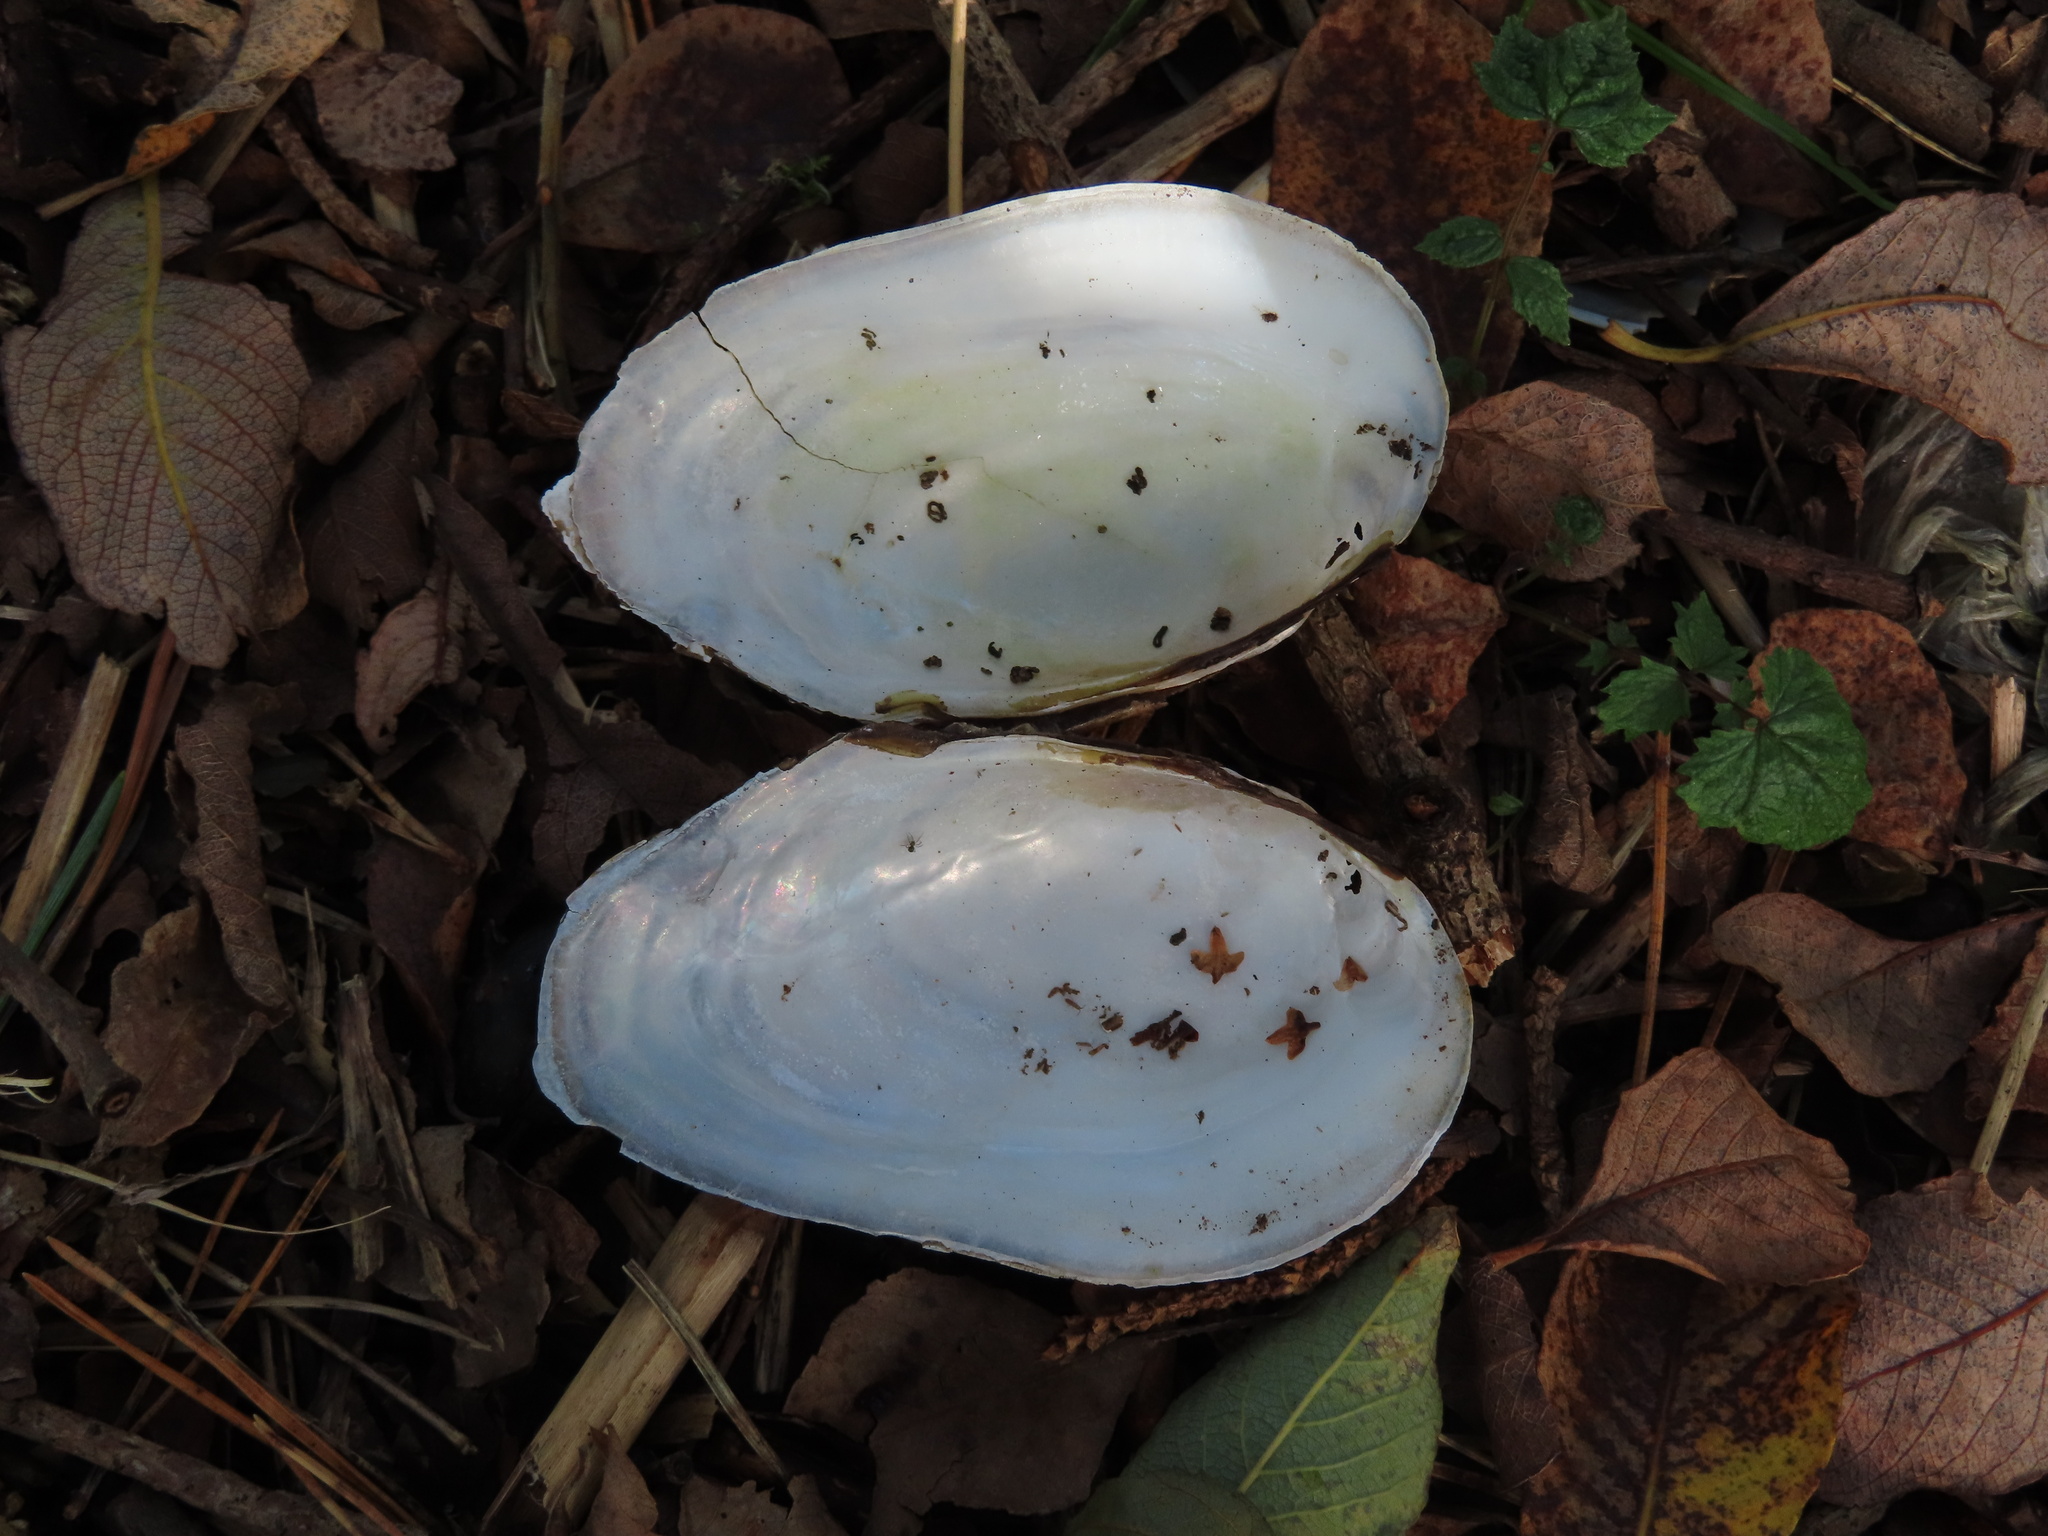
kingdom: Animalia
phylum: Mollusca
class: Bivalvia
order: Unionida
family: Unionidae
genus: Anodonta
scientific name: Anodonta anatina
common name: Duck mussel
